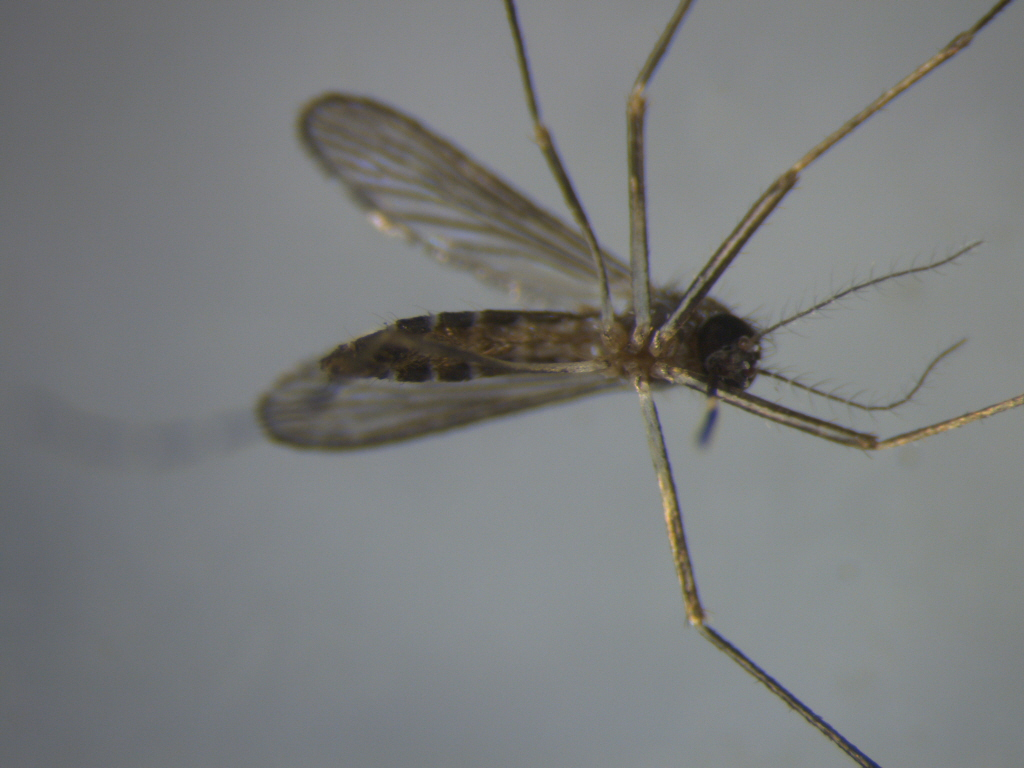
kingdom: Animalia
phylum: Arthropoda
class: Insecta
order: Diptera
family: Culicidae
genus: Aedes
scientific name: Aedes notoscriptus
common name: Australian backyard mosquito
